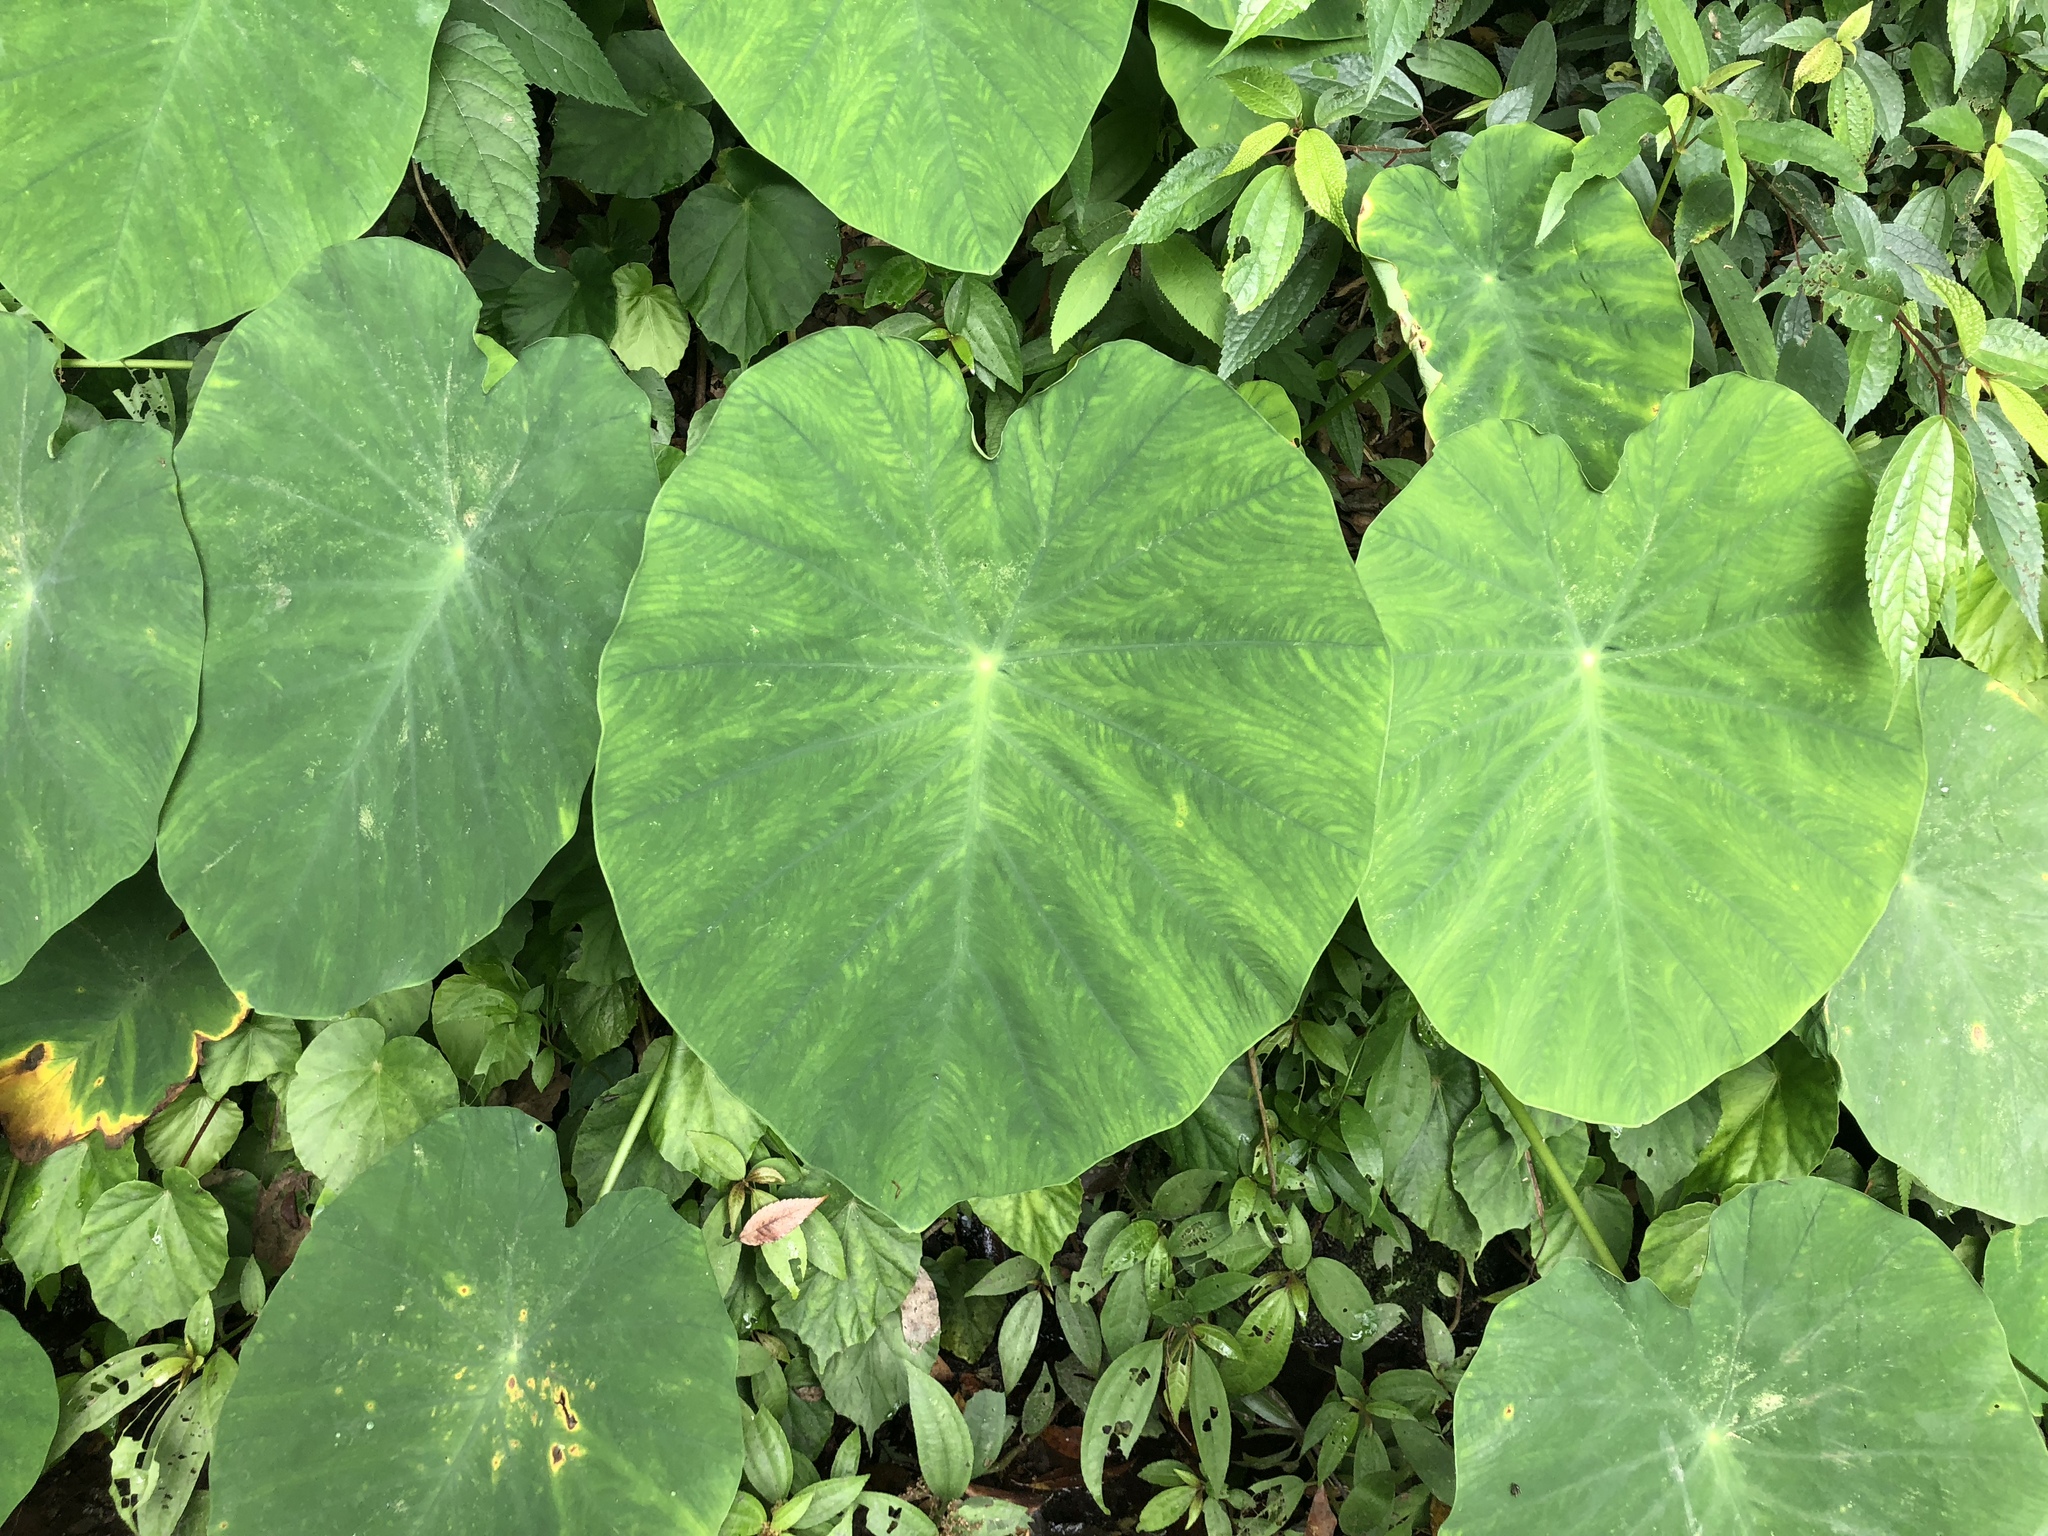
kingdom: Plantae
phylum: Tracheophyta
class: Liliopsida
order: Alismatales
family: Araceae
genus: Colocasia
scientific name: Colocasia esculenta
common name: Taro
